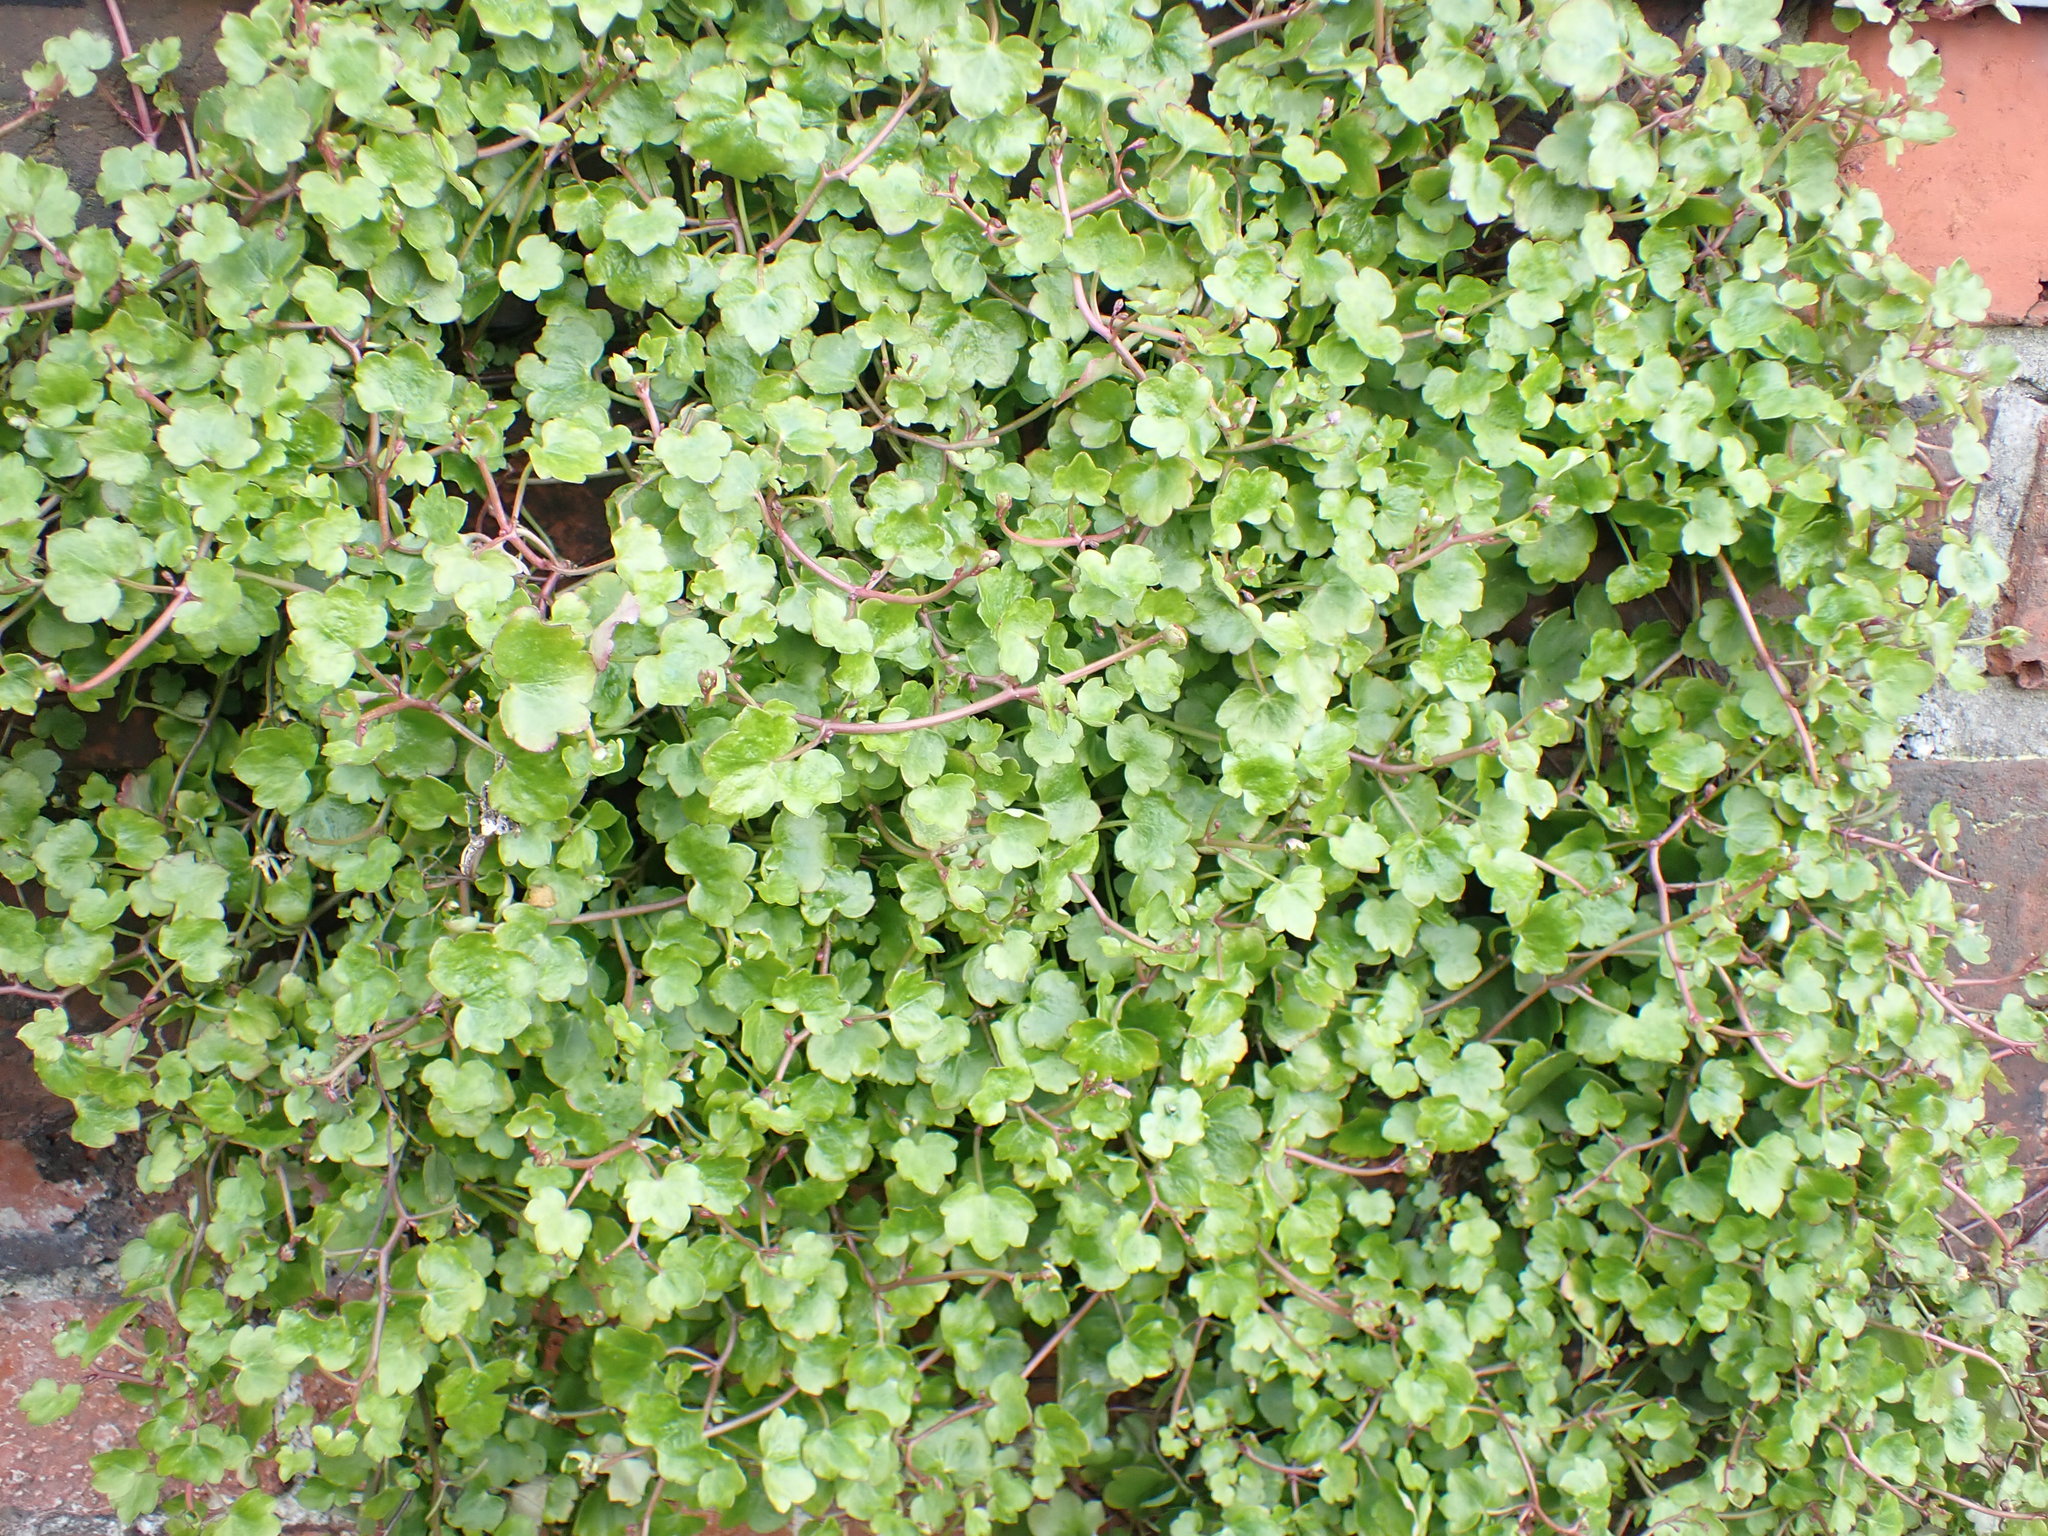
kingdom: Plantae
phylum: Tracheophyta
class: Magnoliopsida
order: Lamiales
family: Plantaginaceae
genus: Cymbalaria
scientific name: Cymbalaria muralis
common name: Ivy-leaved toadflax
